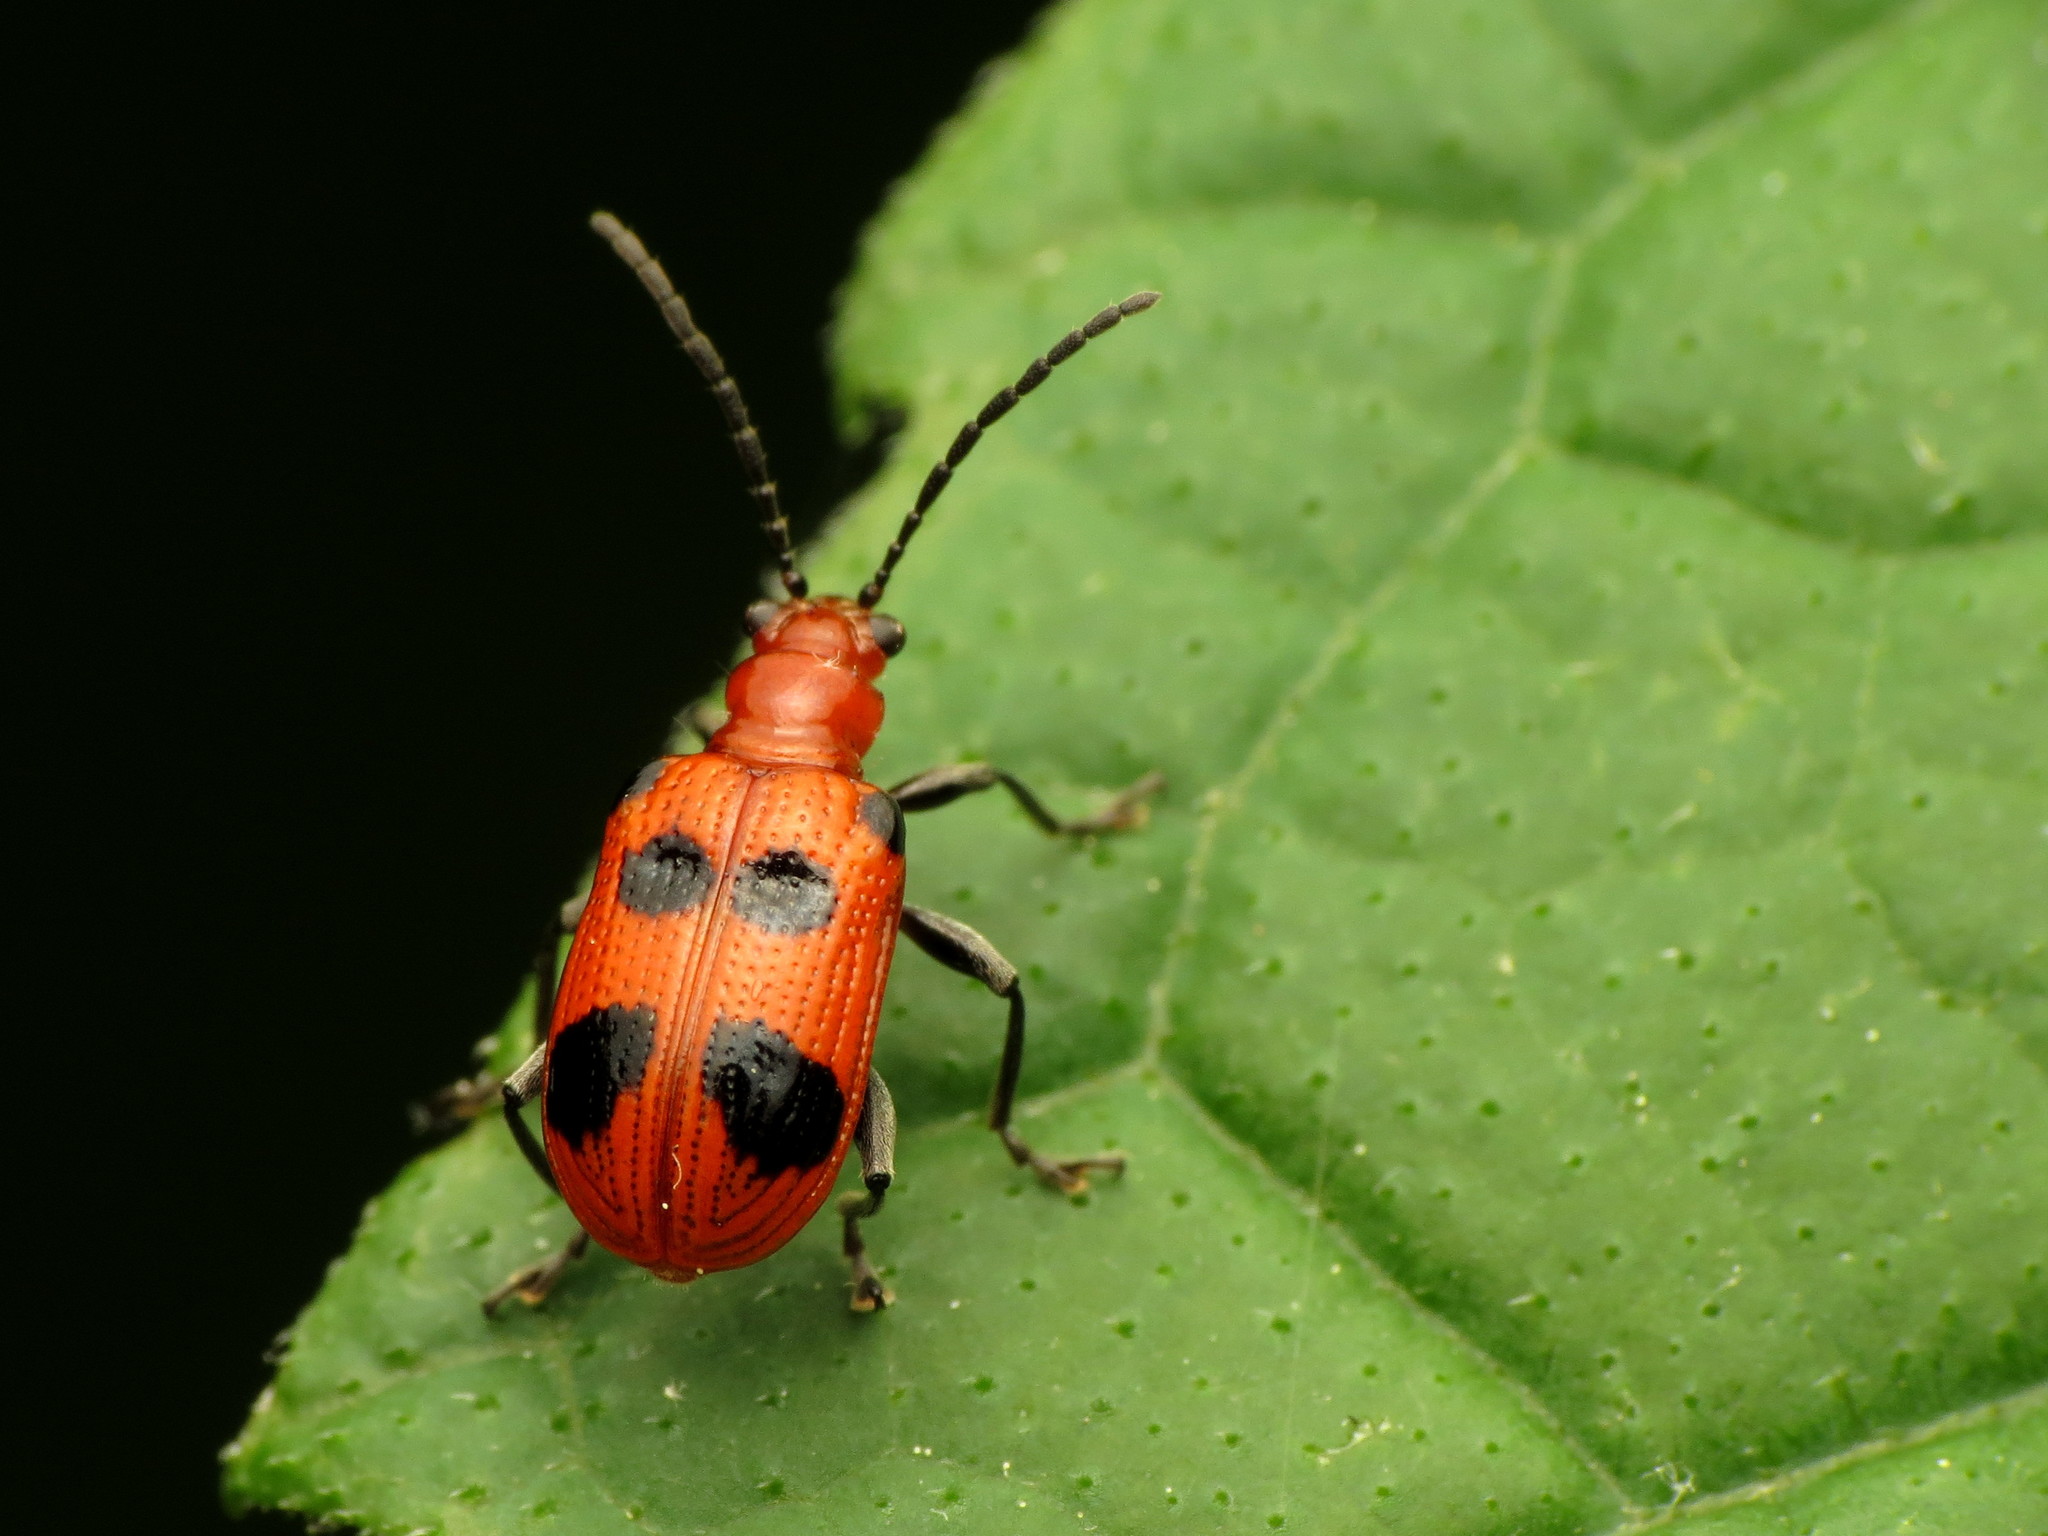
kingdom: Animalia
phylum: Arthropoda
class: Insecta
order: Coleoptera
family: Chrysomelidae
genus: Neolema
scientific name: Neolema sexpunctata
